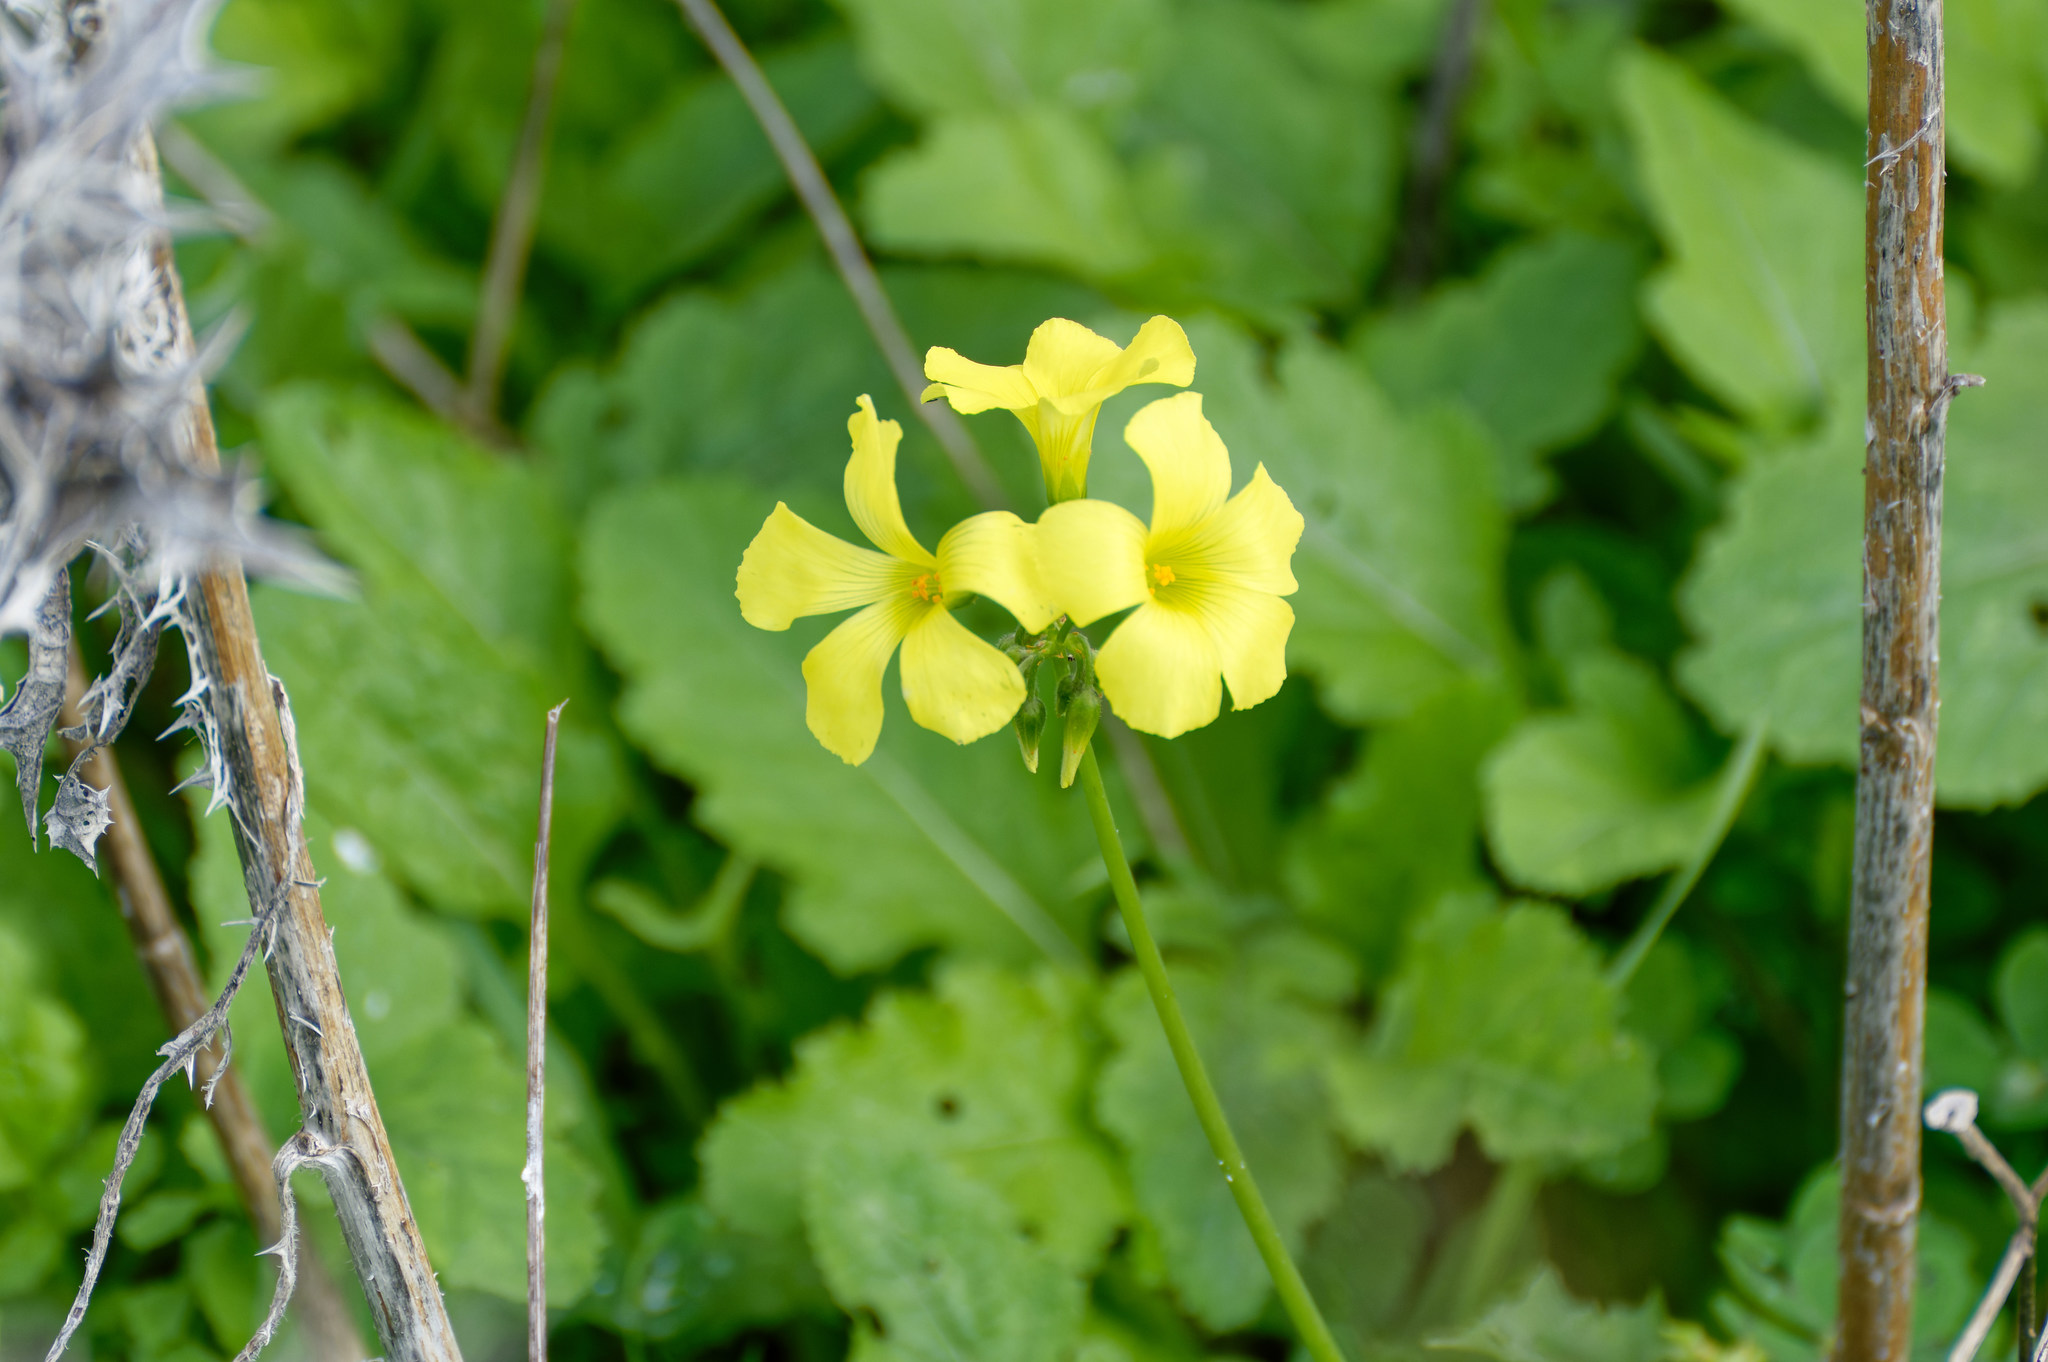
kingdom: Plantae
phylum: Tracheophyta
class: Magnoliopsida
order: Oxalidales
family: Oxalidaceae
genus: Oxalis
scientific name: Oxalis pes-caprae
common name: Bermuda-buttercup
